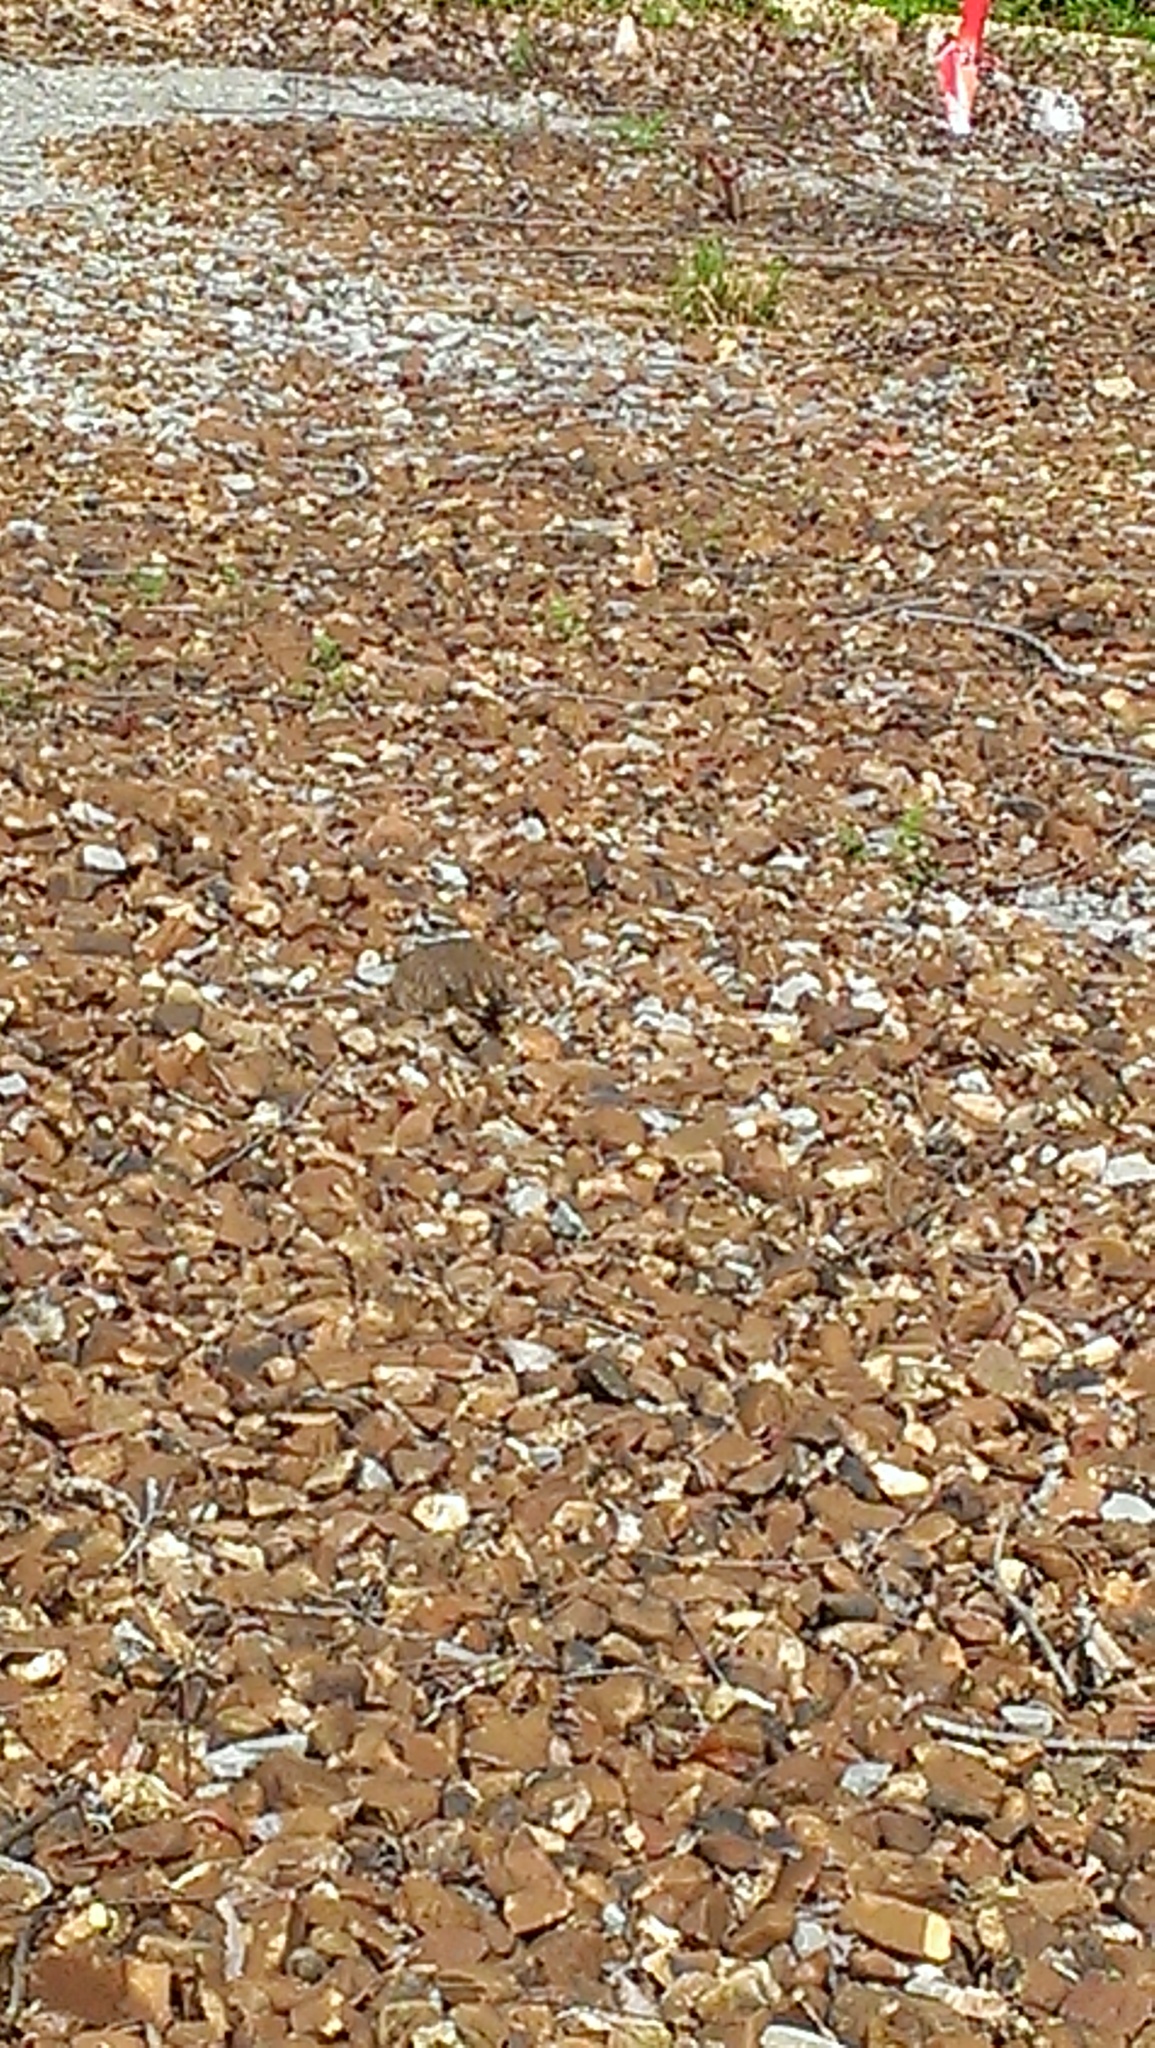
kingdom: Animalia
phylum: Chordata
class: Aves
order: Charadriiformes
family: Charadriidae
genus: Charadrius
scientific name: Charadrius vociferus
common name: Killdeer
